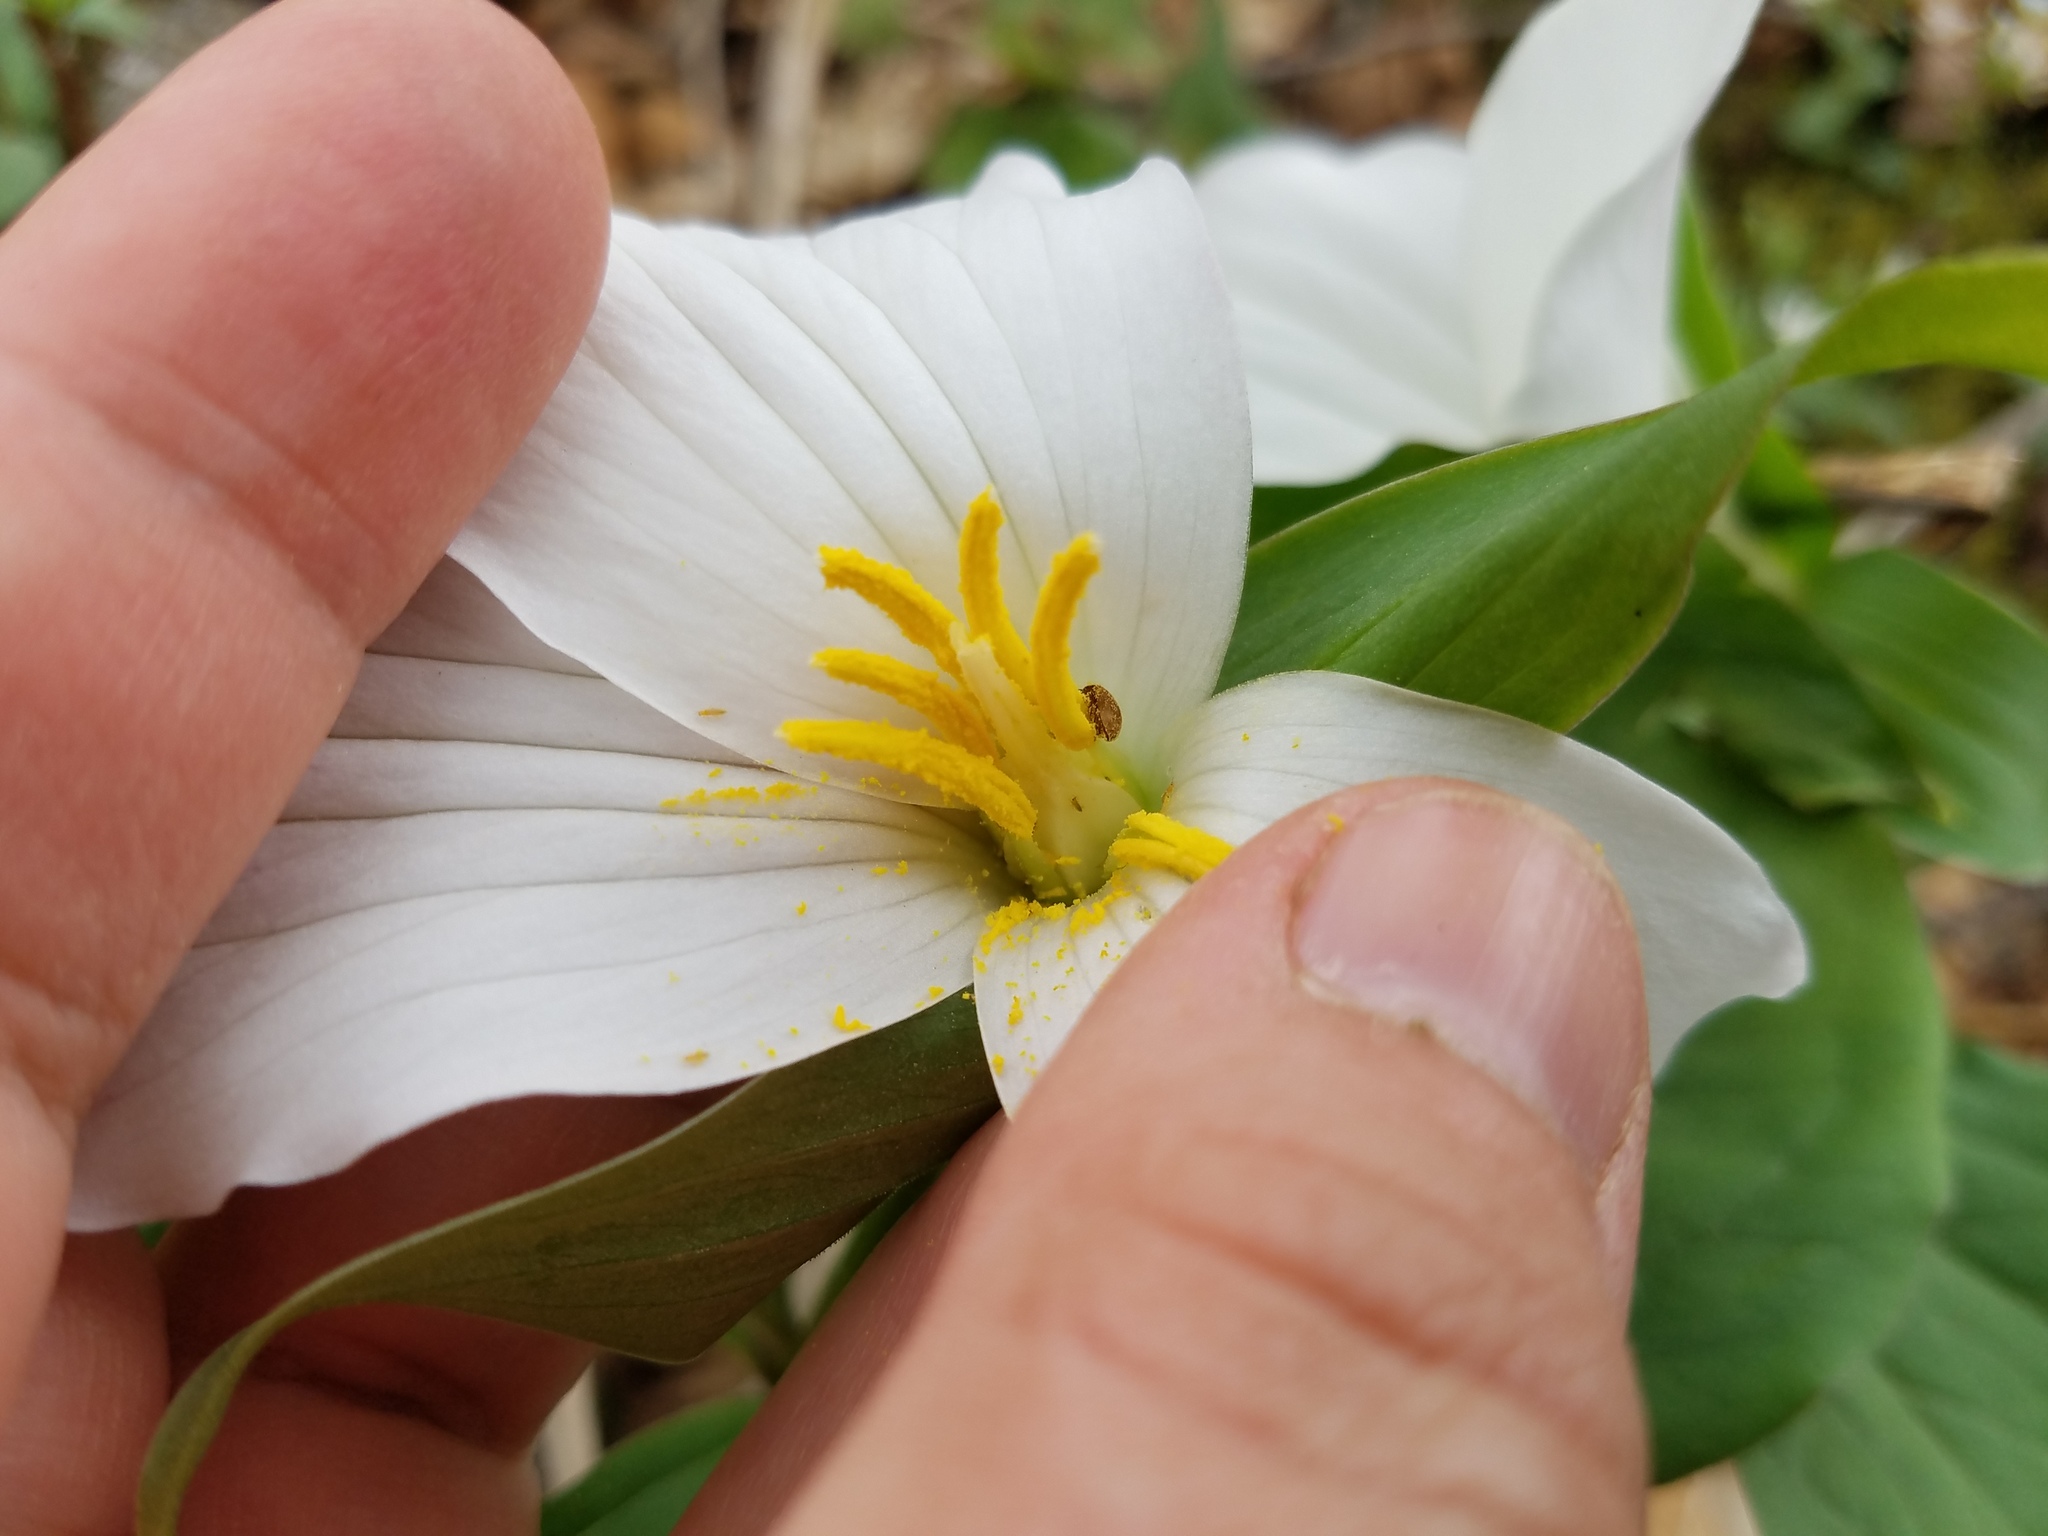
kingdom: Plantae
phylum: Tracheophyta
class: Liliopsida
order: Liliales
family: Melanthiaceae
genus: Trillium
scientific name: Trillium grandiflorum
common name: Great white trillium
